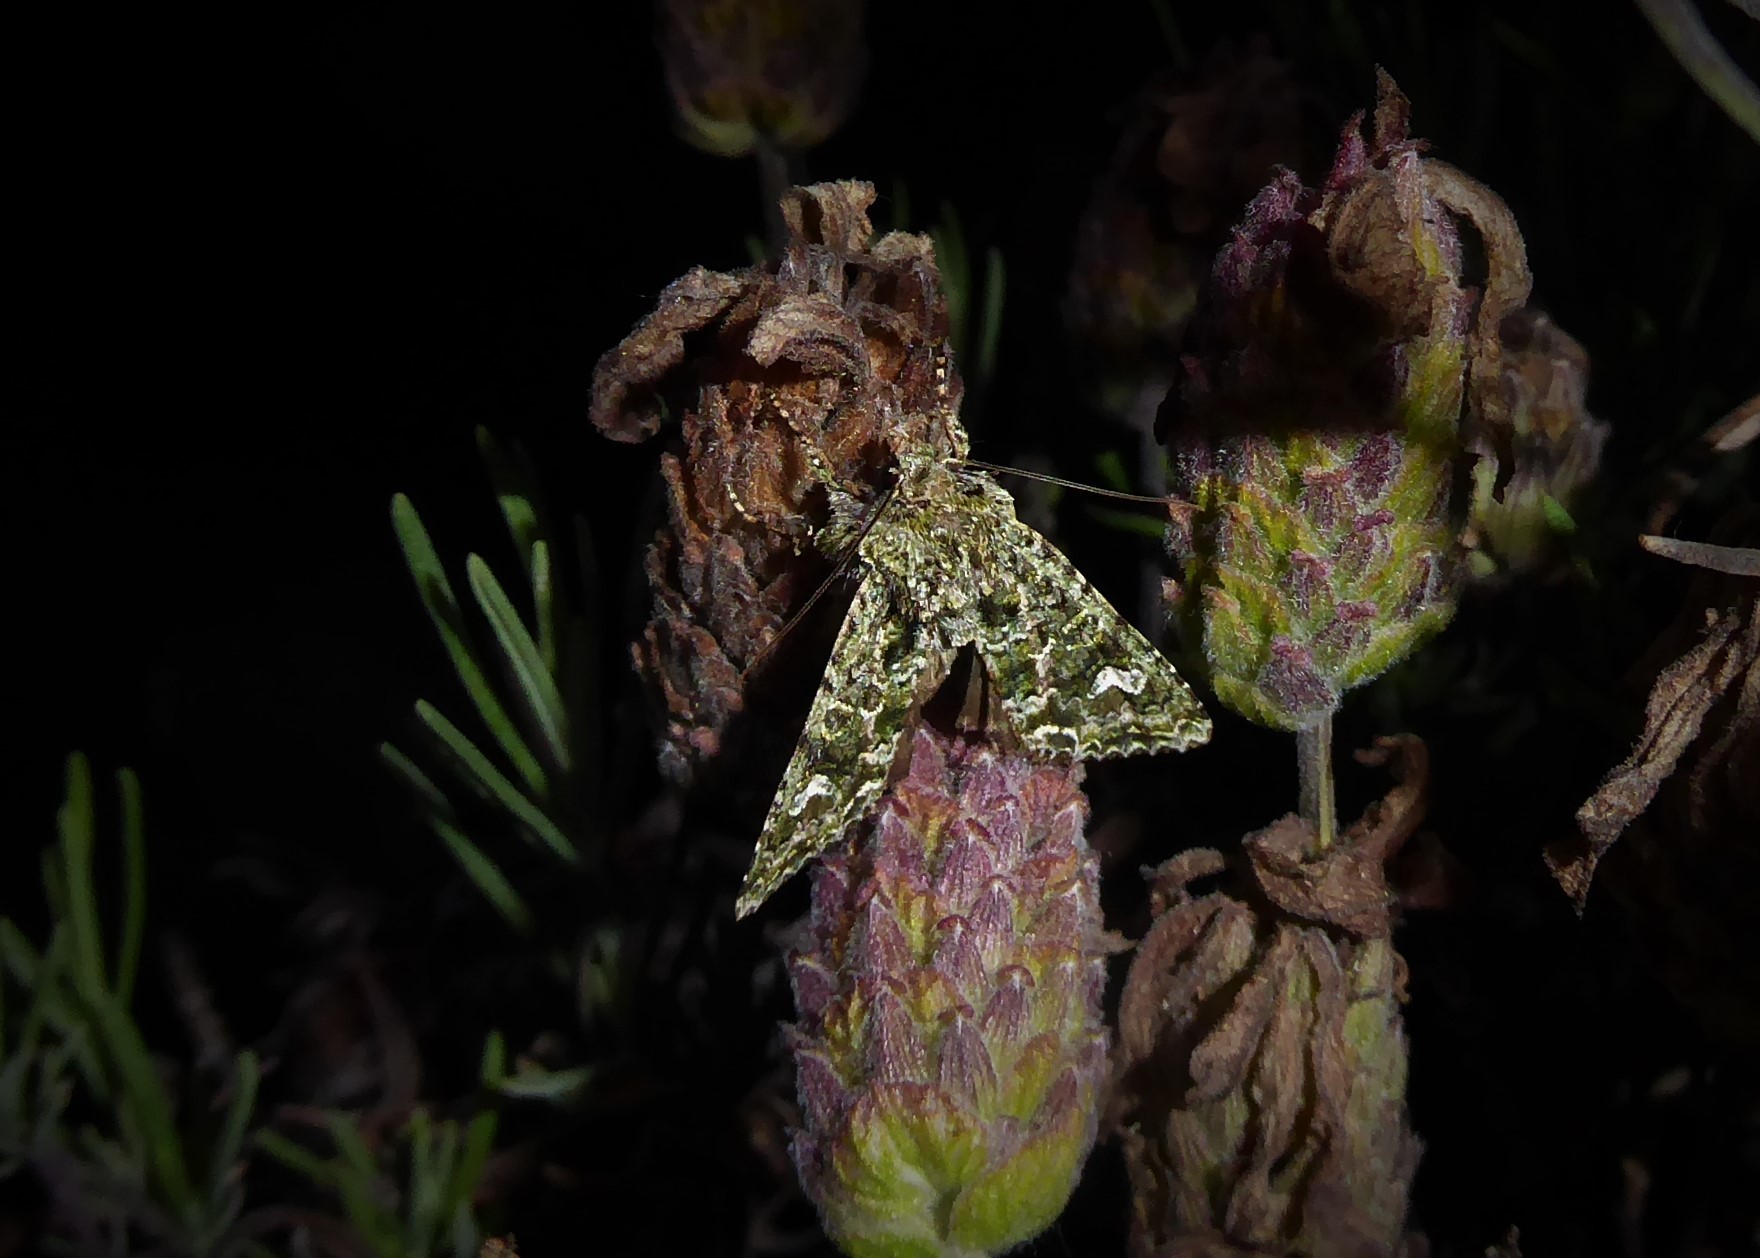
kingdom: Animalia
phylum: Arthropoda
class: Insecta
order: Lepidoptera
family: Noctuidae
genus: Ichneutica
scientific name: Ichneutica
